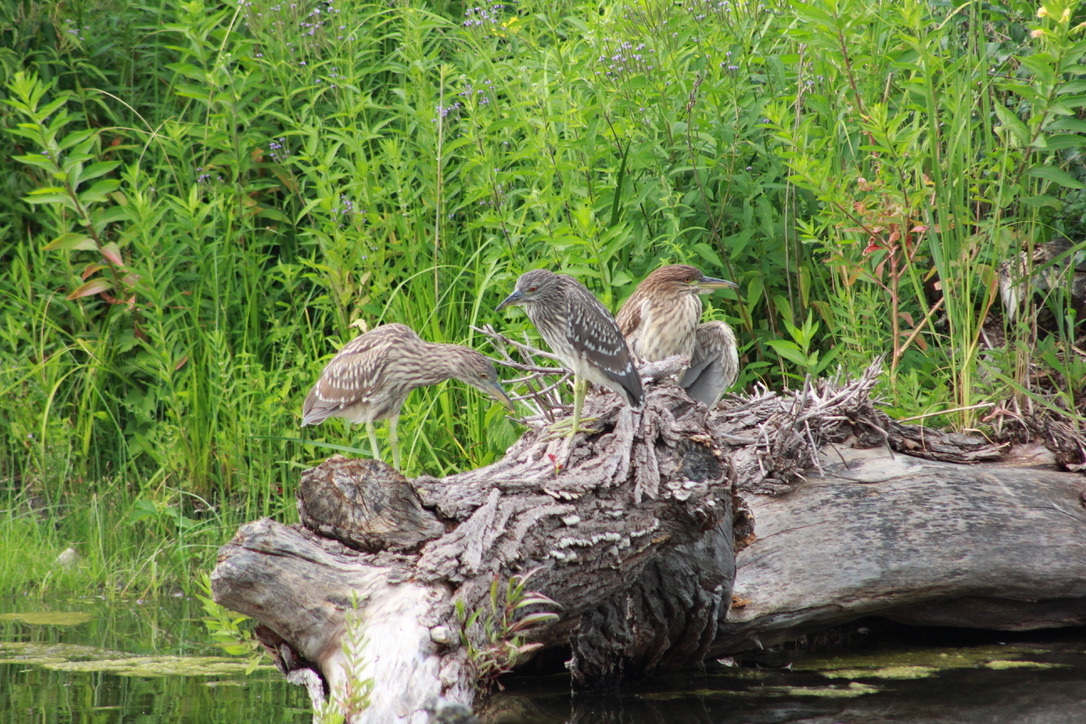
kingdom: Animalia
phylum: Chordata
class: Aves
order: Pelecaniformes
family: Ardeidae
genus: Nycticorax
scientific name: Nycticorax nycticorax
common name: Black-crowned night heron
